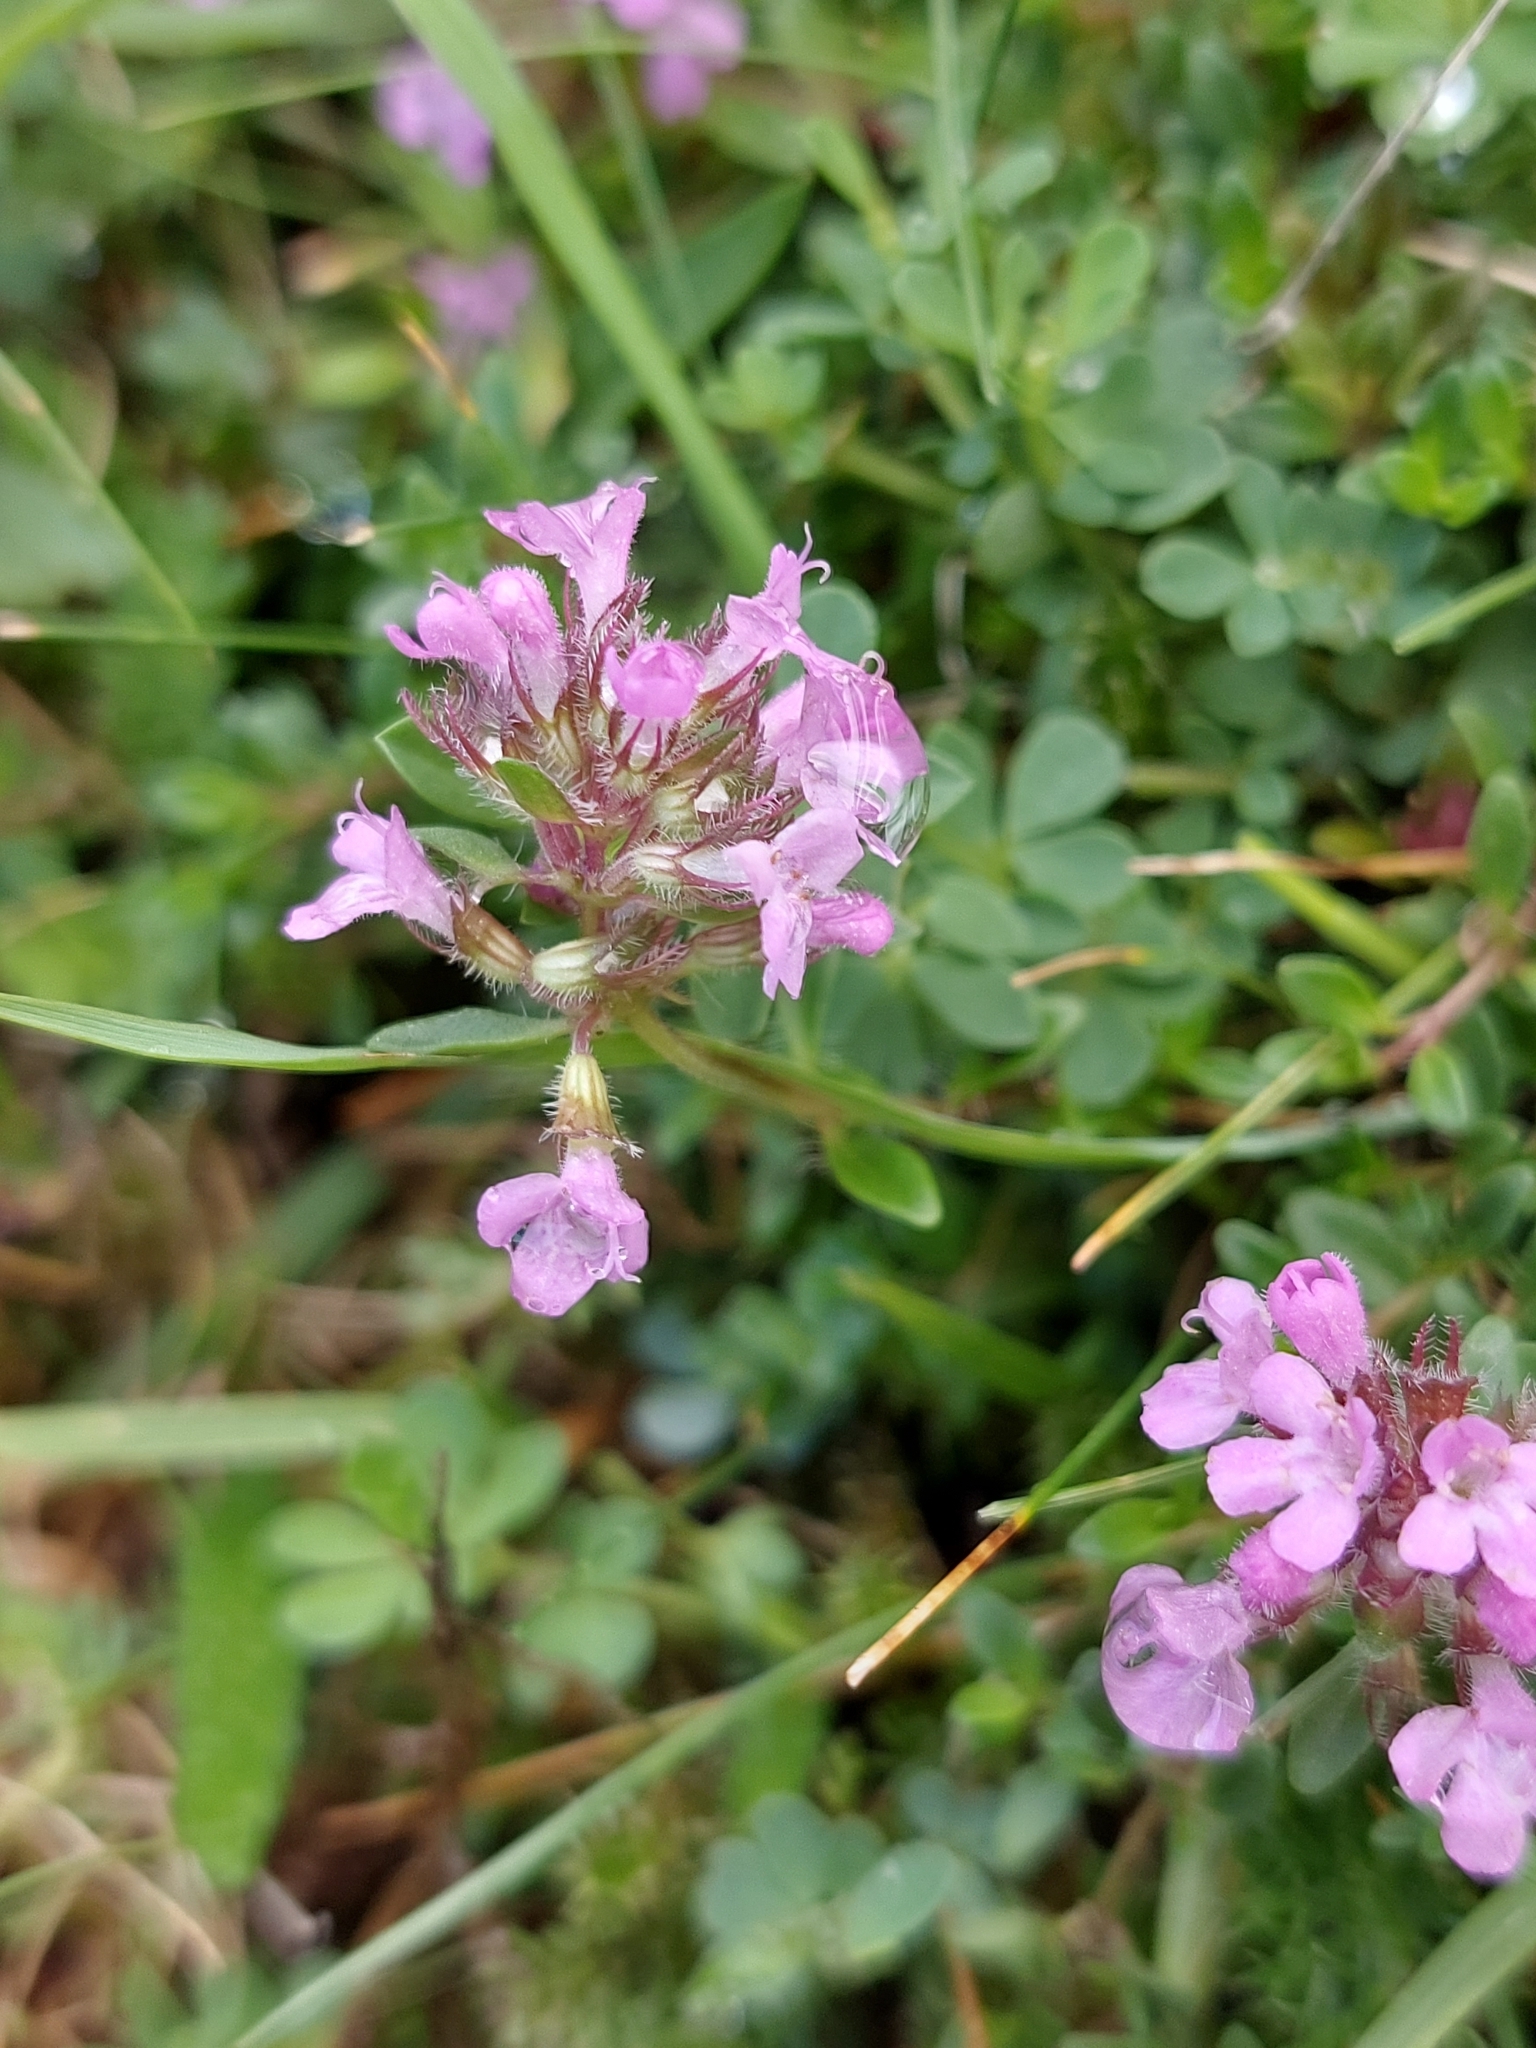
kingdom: Plantae
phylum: Tracheophyta
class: Magnoliopsida
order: Lamiales
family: Lamiaceae
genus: Thymus
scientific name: Thymus praecox
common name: Wild thyme
